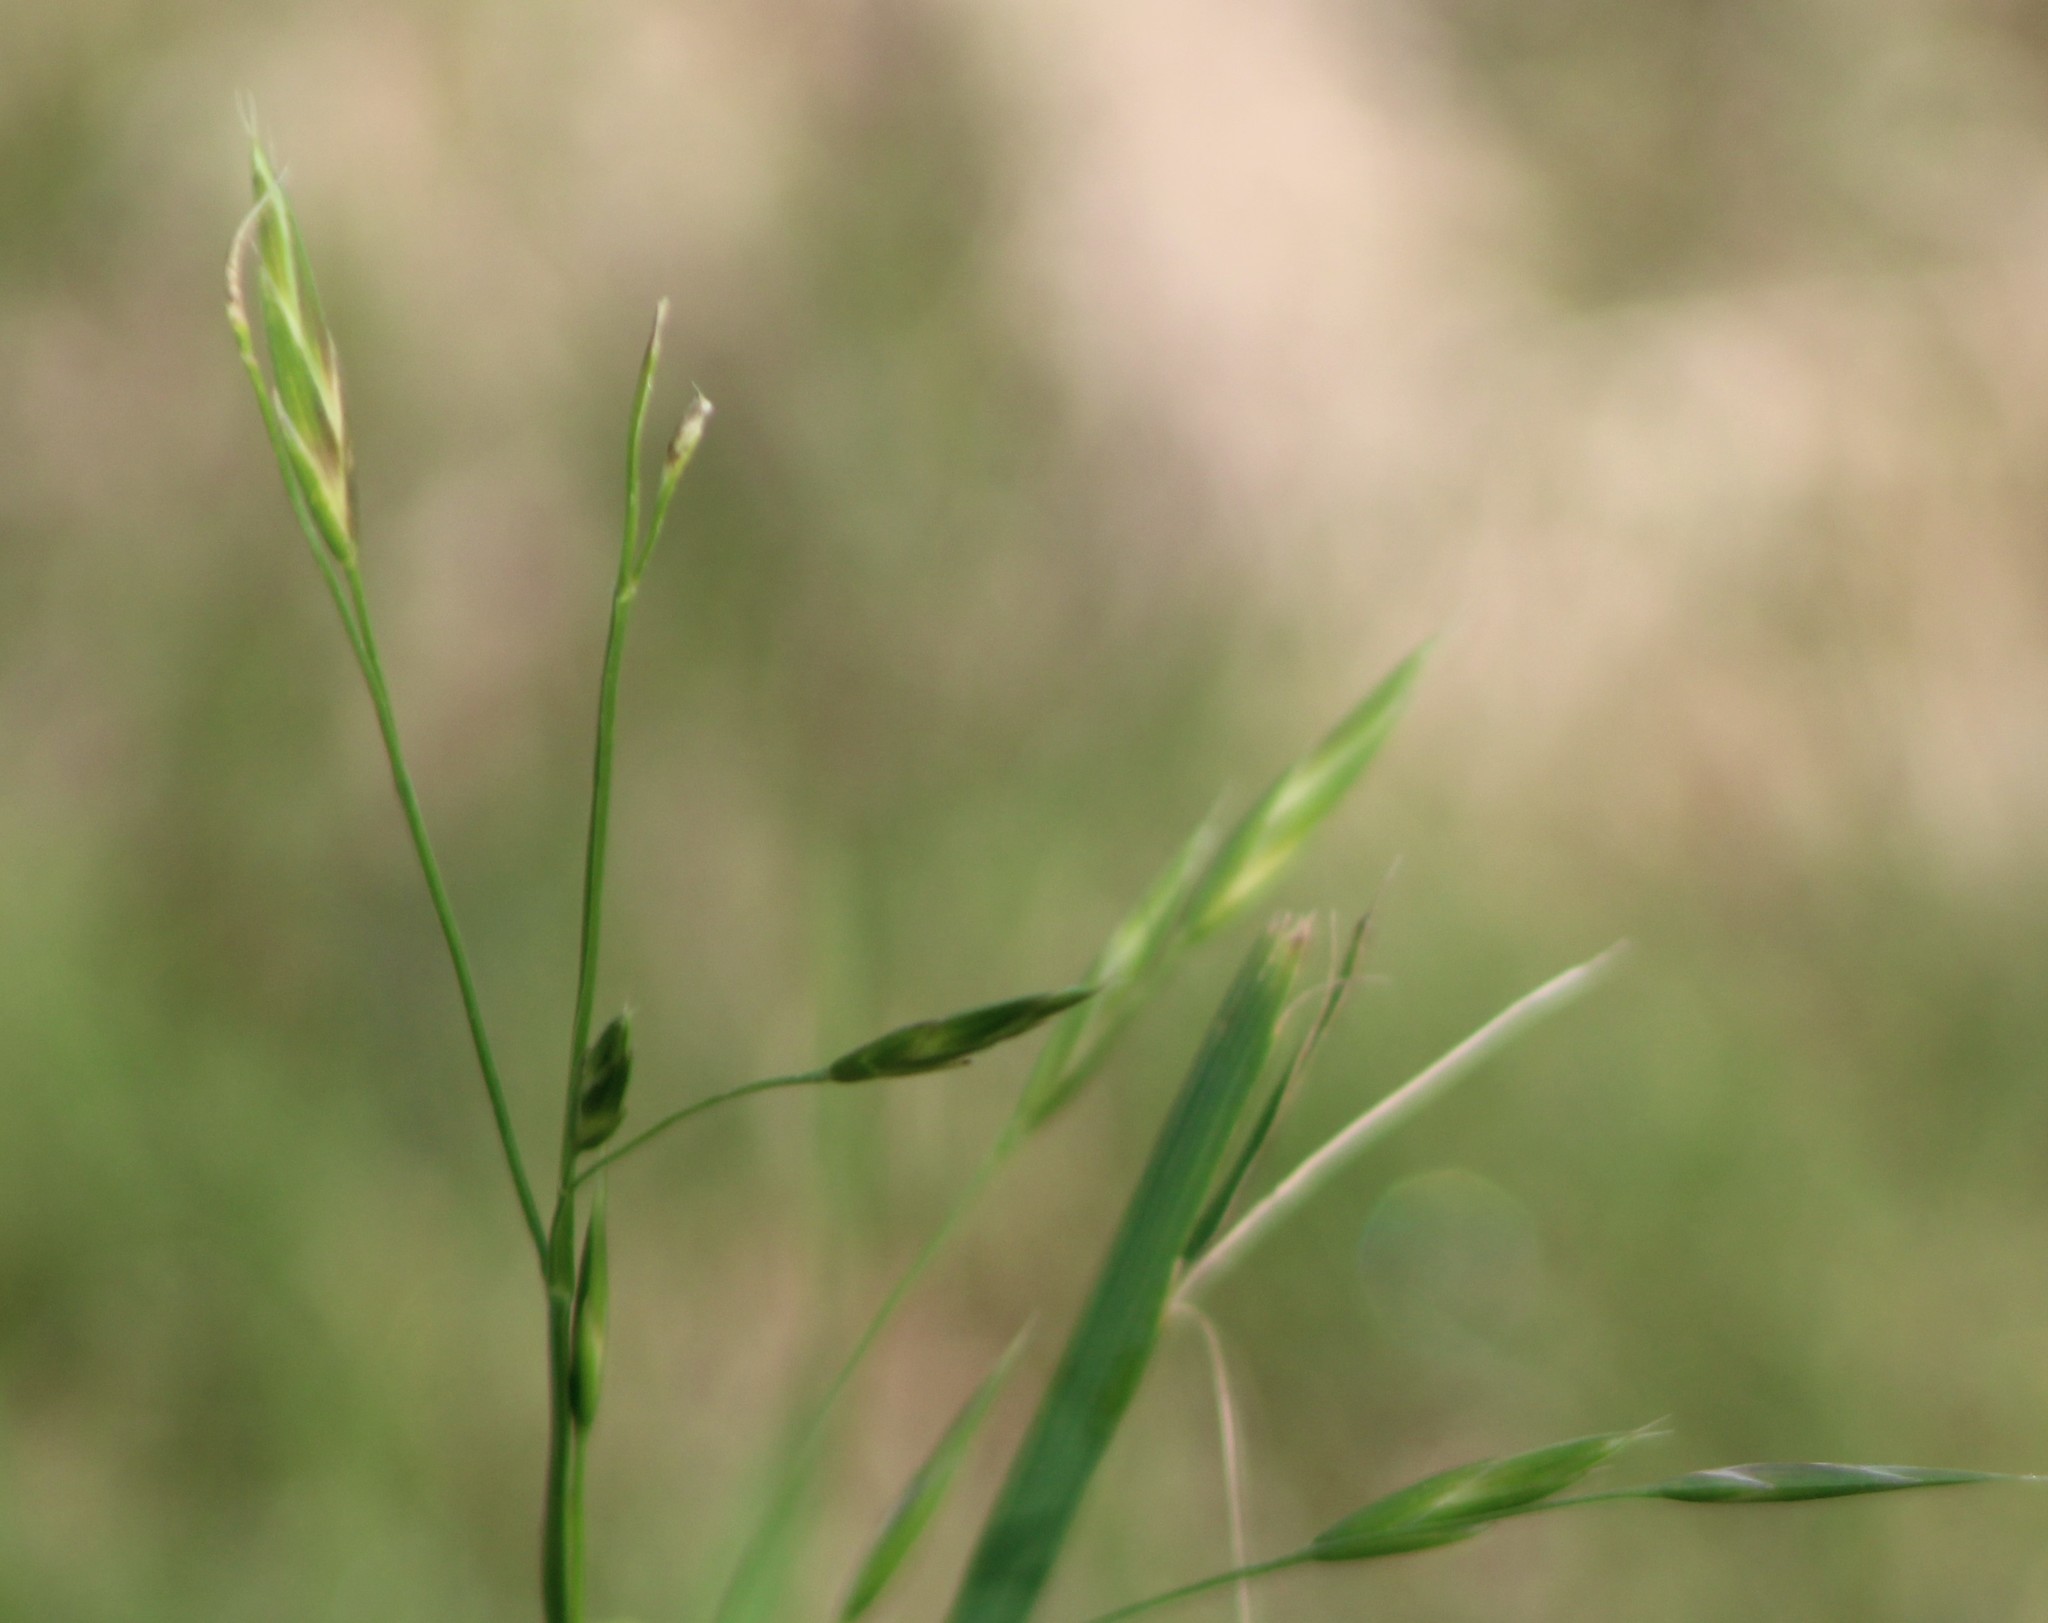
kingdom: Plantae
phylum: Tracheophyta
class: Liliopsida
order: Poales
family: Poaceae
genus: Bromus
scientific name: Bromus catharticus
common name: Rescuegrass
